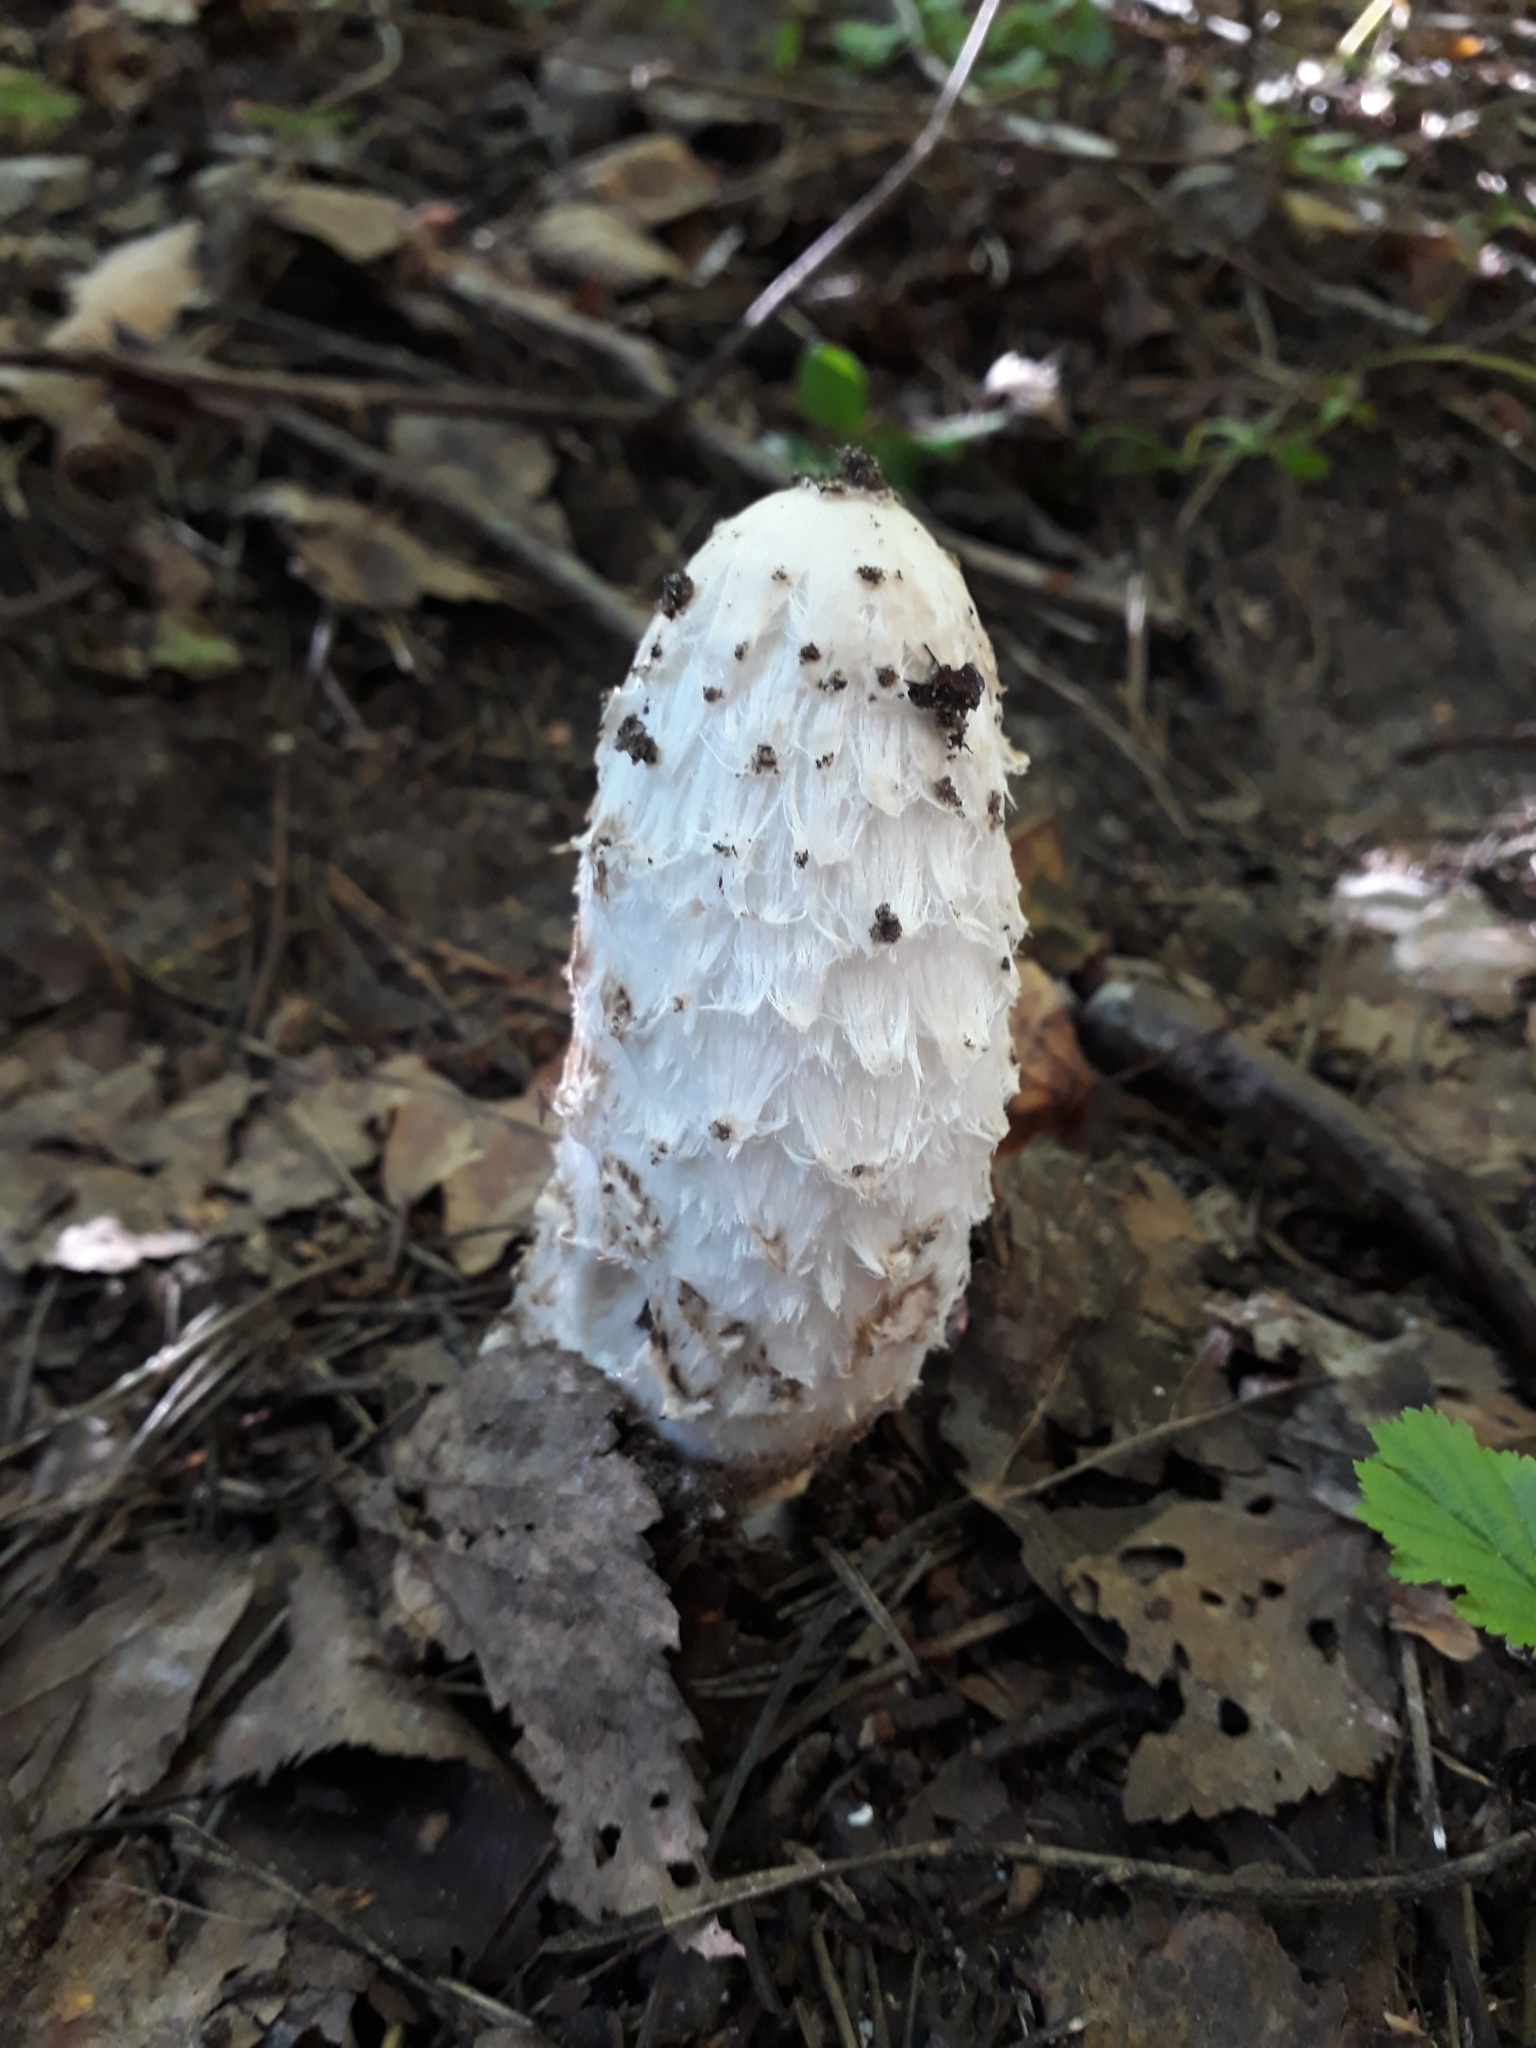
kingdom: Fungi
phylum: Basidiomycota
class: Agaricomycetes
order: Agaricales
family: Agaricaceae
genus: Coprinus
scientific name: Coprinus comatus
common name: Lawyer's wig
